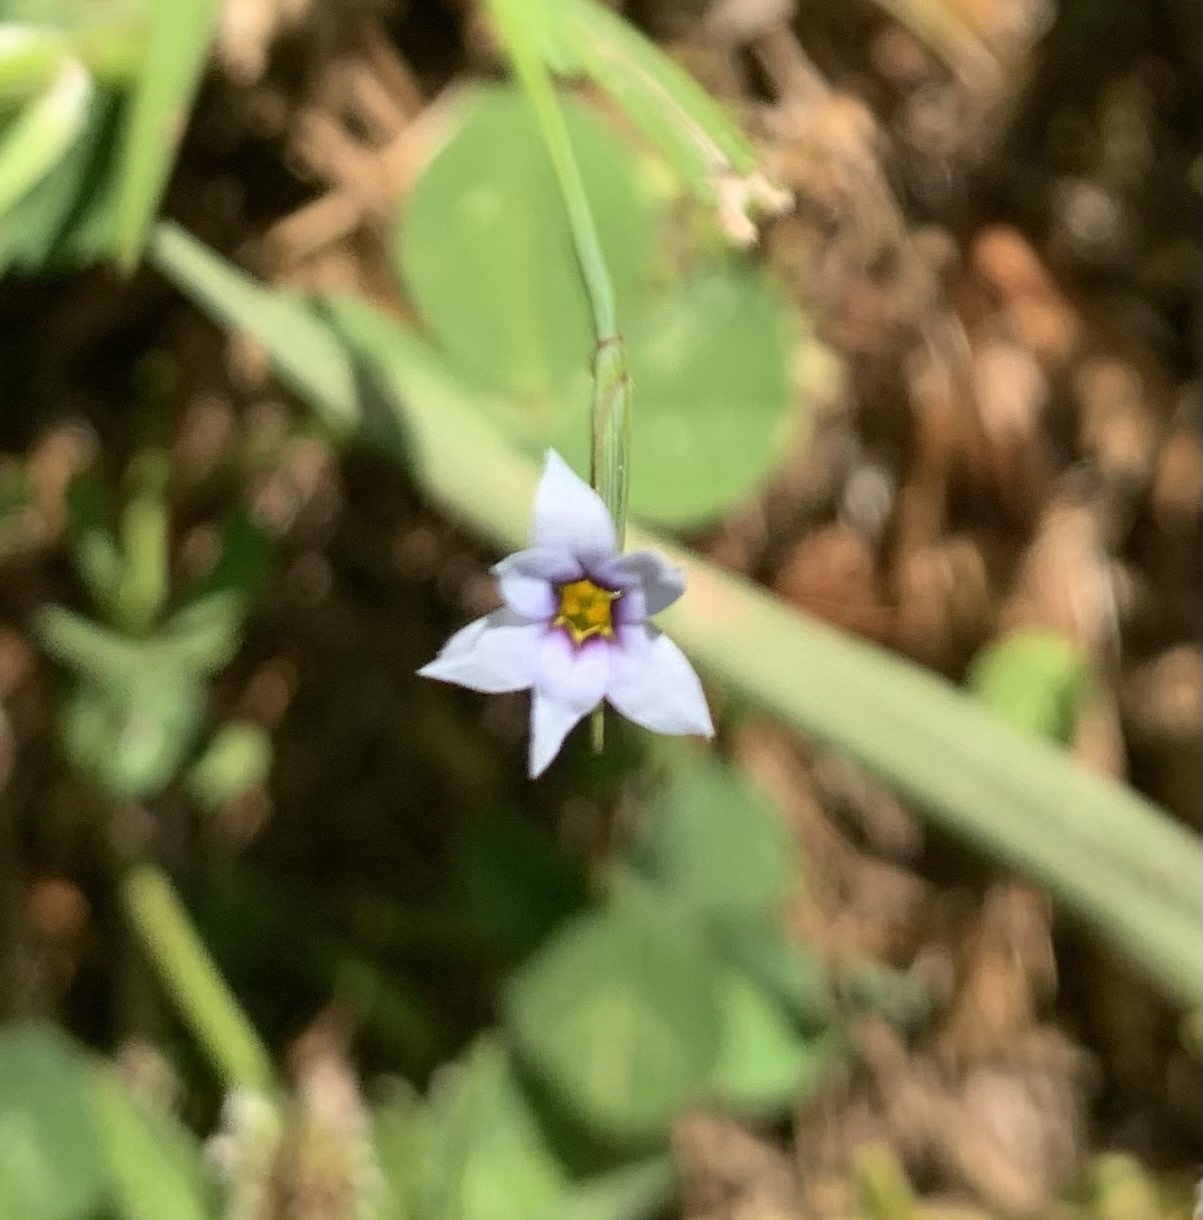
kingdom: Plantae
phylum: Tracheophyta
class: Liliopsida
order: Asparagales
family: Iridaceae
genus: Sisyrinchium
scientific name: Sisyrinchium micranthum
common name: Bermuda pigroot
